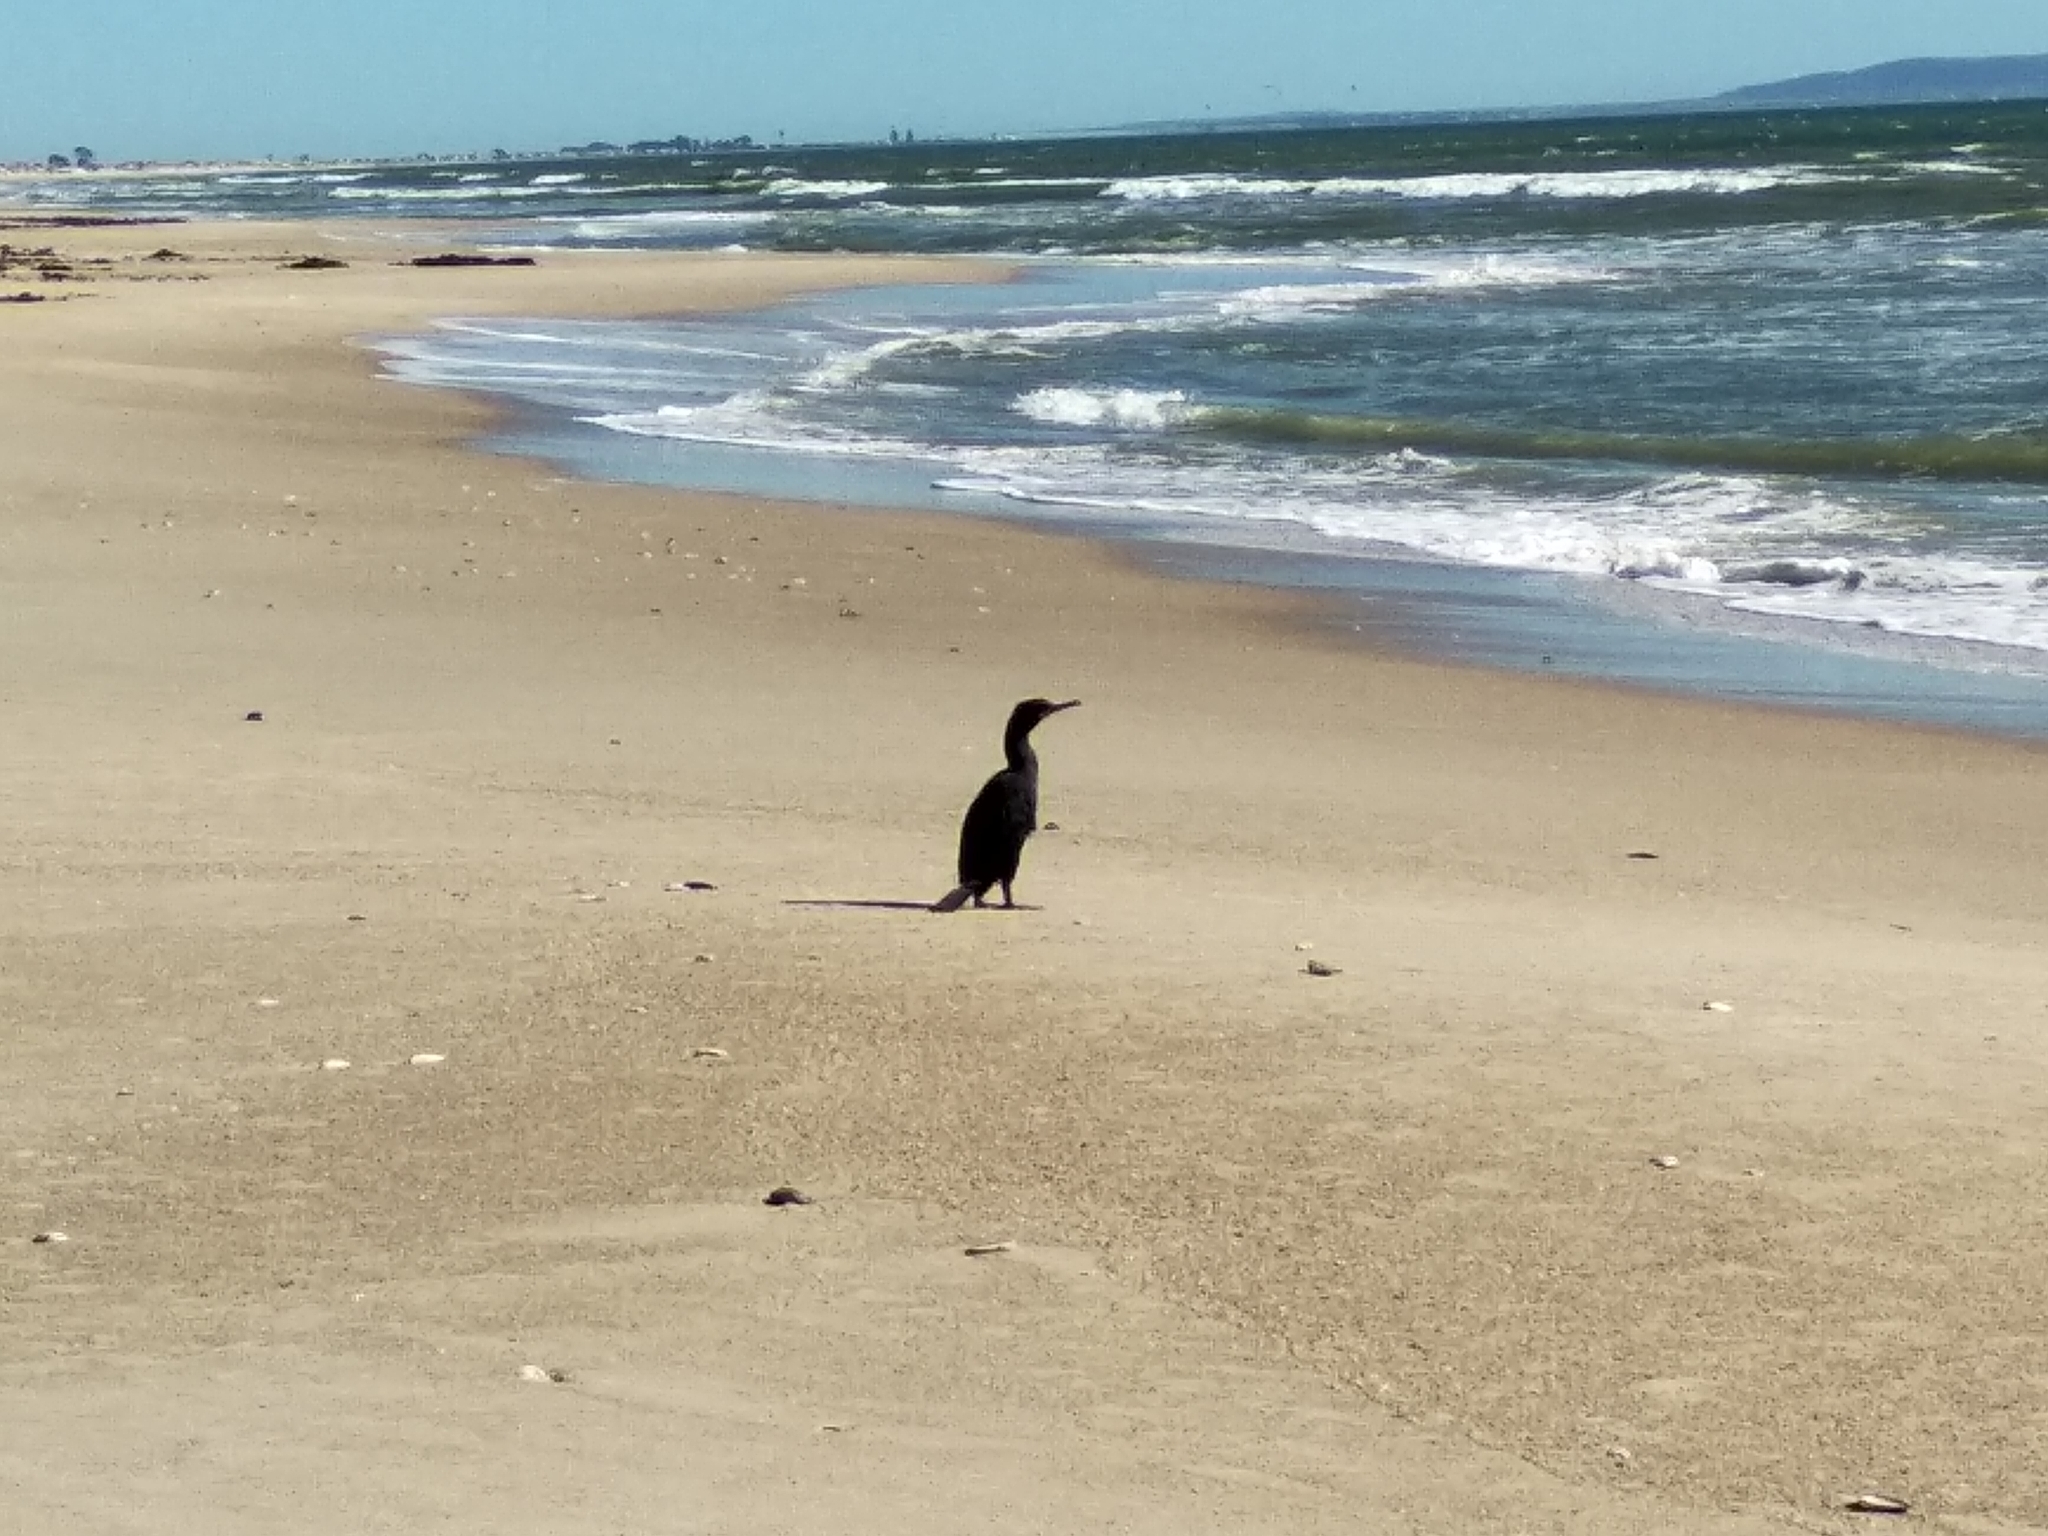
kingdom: Animalia
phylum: Chordata
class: Aves
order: Suliformes
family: Phalacrocoracidae
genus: Phalacrocorax
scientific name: Phalacrocorax capensis
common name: Cape cormorant
